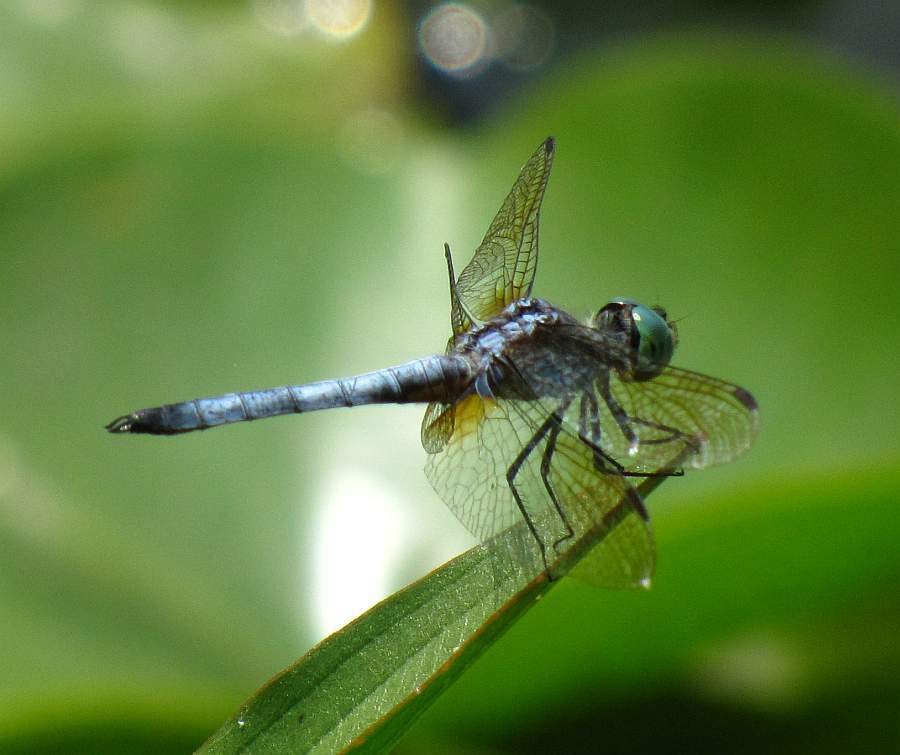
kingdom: Animalia
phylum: Arthropoda
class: Insecta
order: Odonata
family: Libellulidae
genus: Pachydiplax
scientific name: Pachydiplax longipennis
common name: Blue dasher
